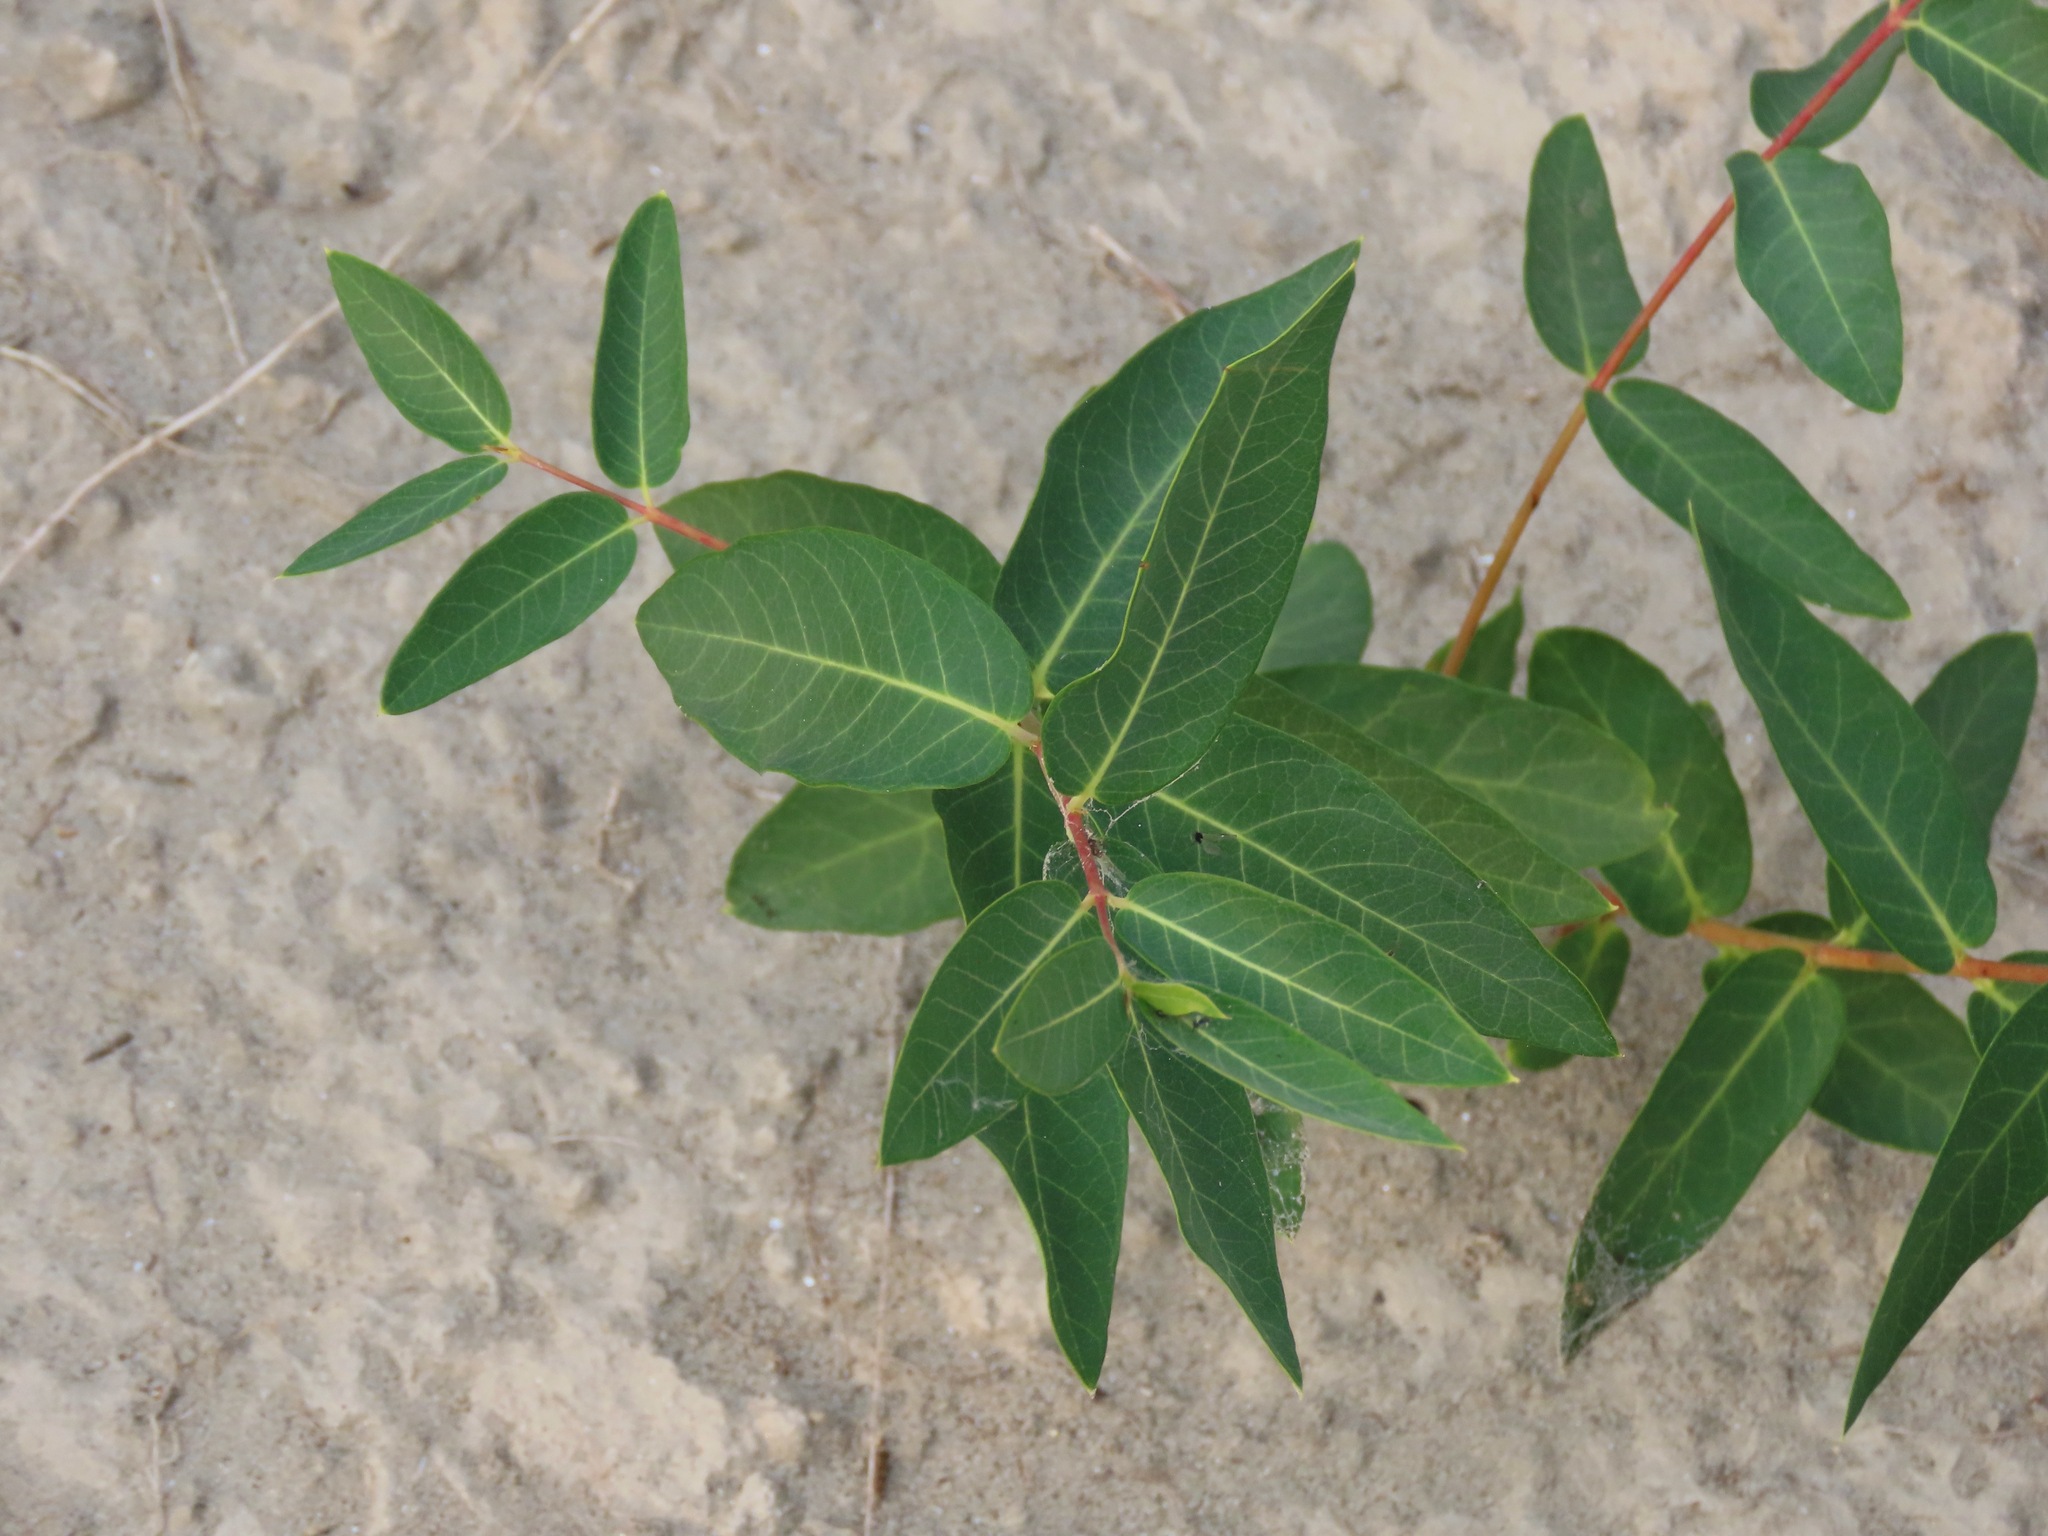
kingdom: Plantae
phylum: Tracheophyta
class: Magnoliopsida
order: Gentianales
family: Apocynaceae
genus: Apocynum
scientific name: Apocynum cannabinum
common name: Hemp dogbane
